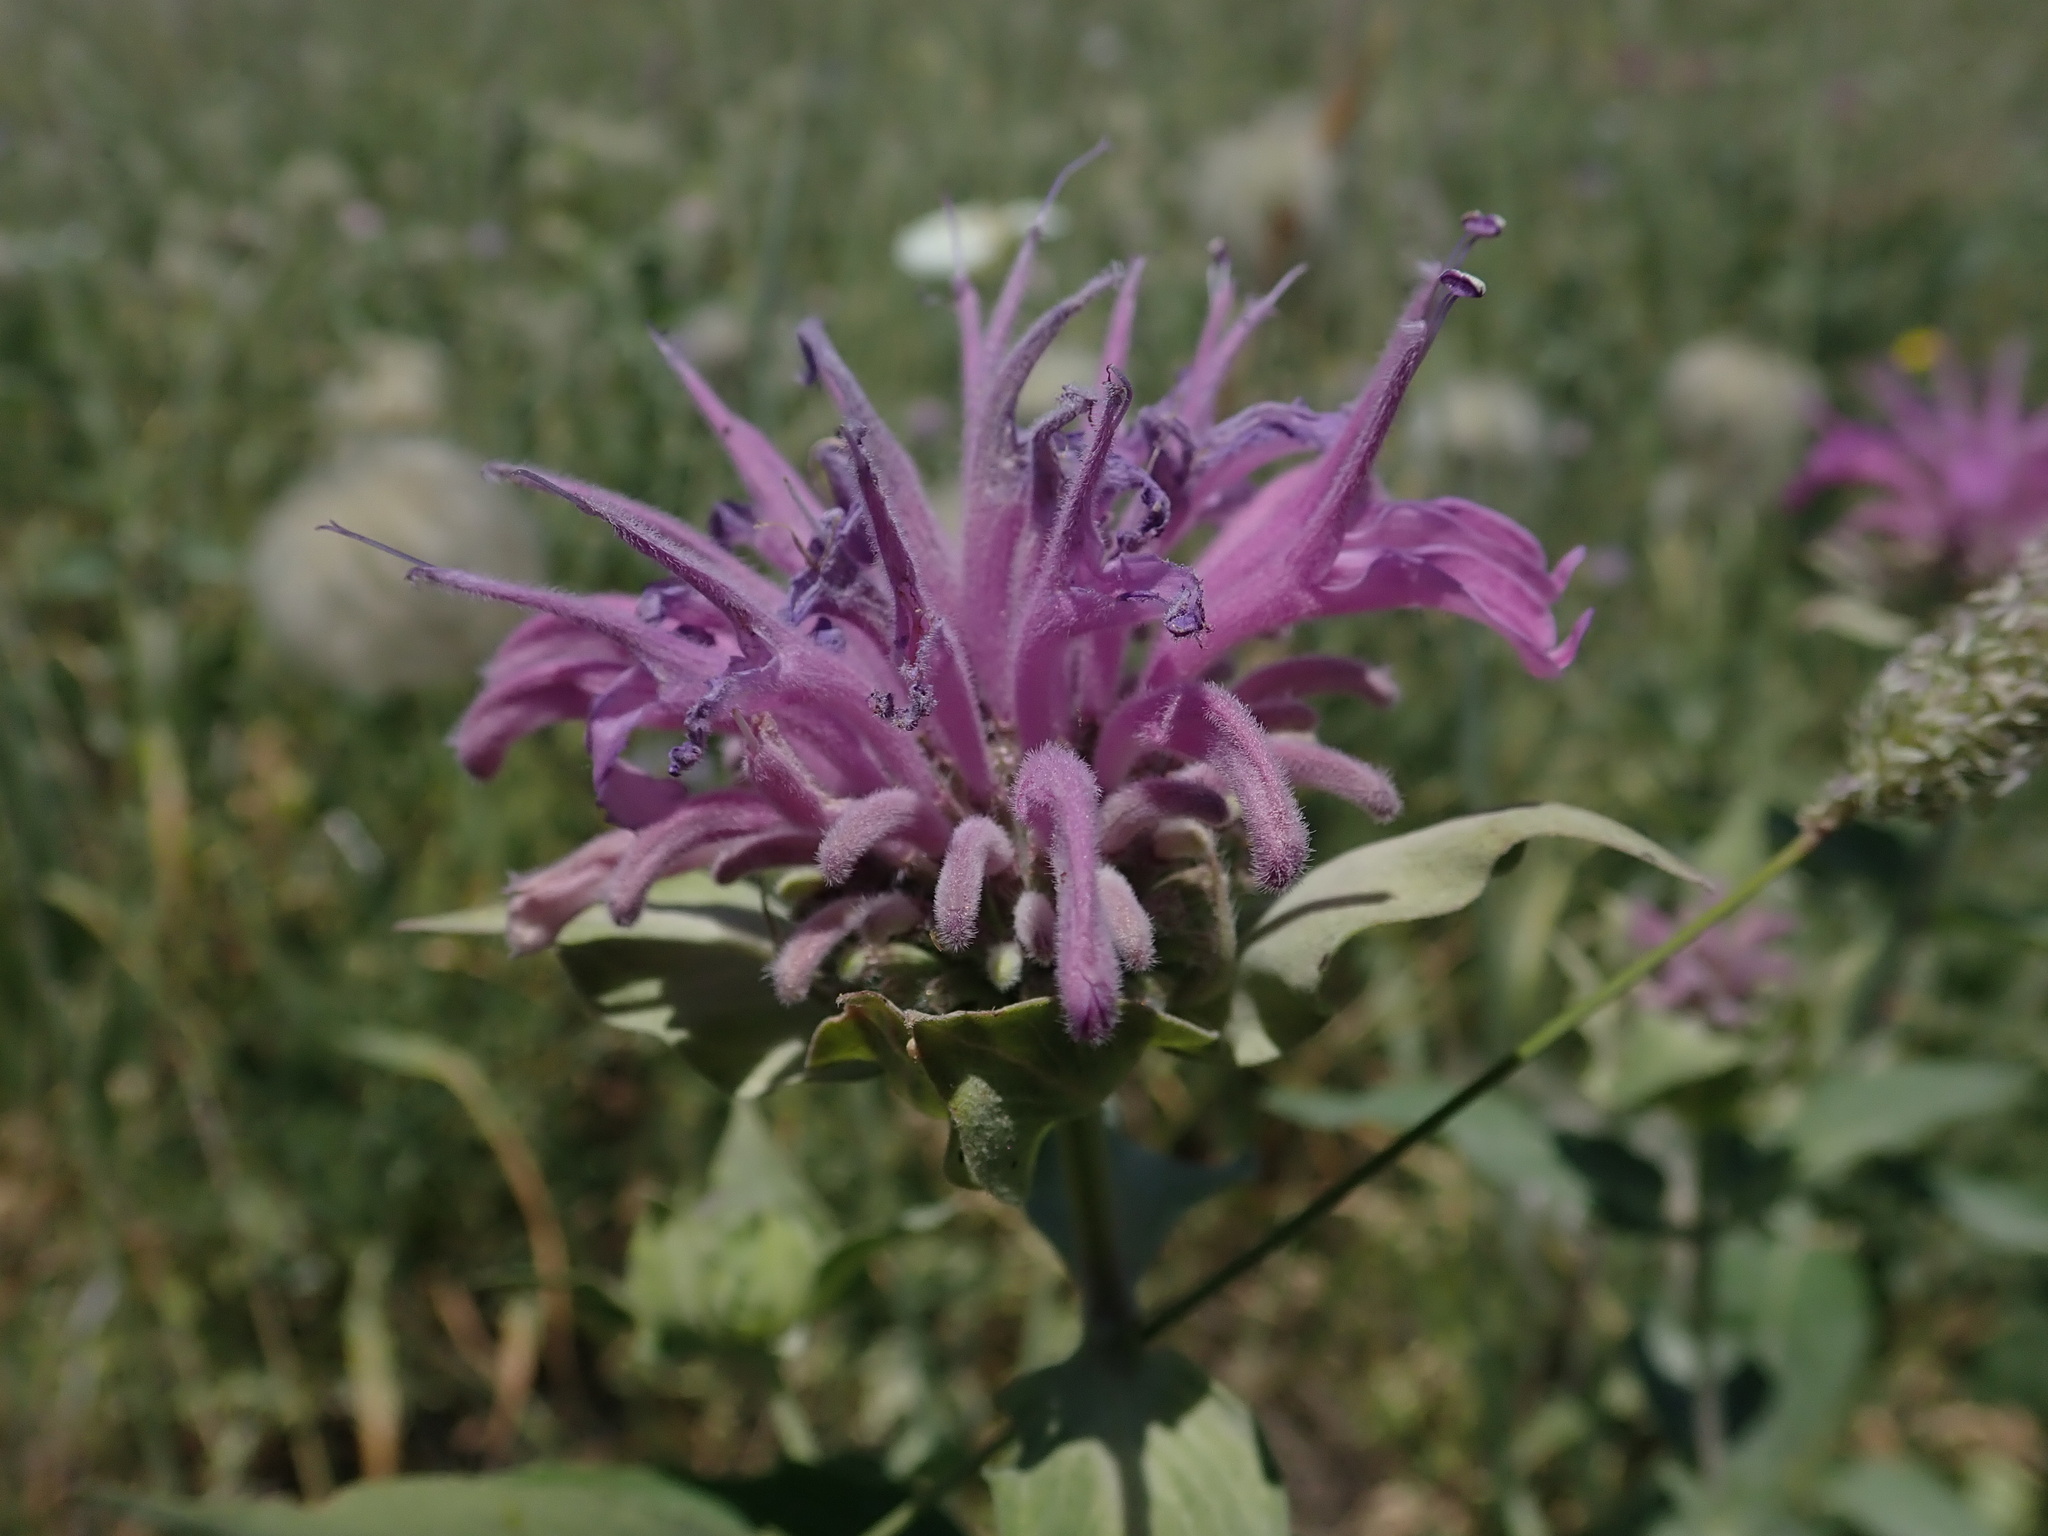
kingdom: Plantae
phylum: Tracheophyta
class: Magnoliopsida
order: Lamiales
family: Lamiaceae
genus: Monarda
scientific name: Monarda fistulosa
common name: Purple beebalm
